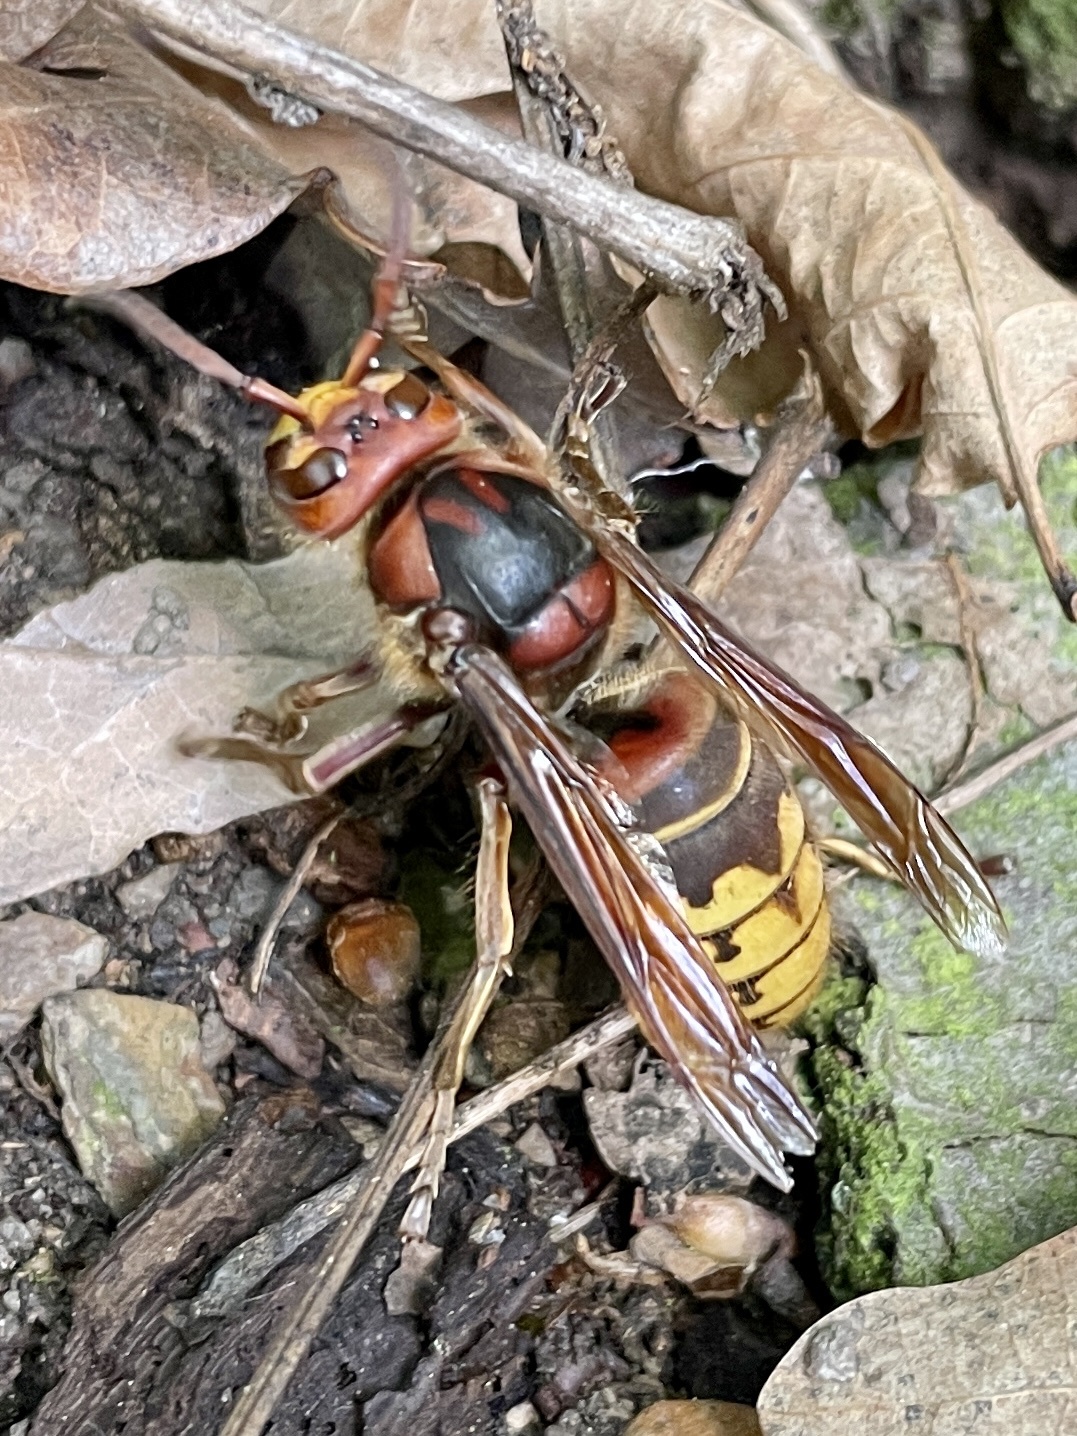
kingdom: Animalia
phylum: Arthropoda
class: Insecta
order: Hymenoptera
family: Vespidae
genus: Vespa
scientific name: Vespa crabro
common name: Hornet
